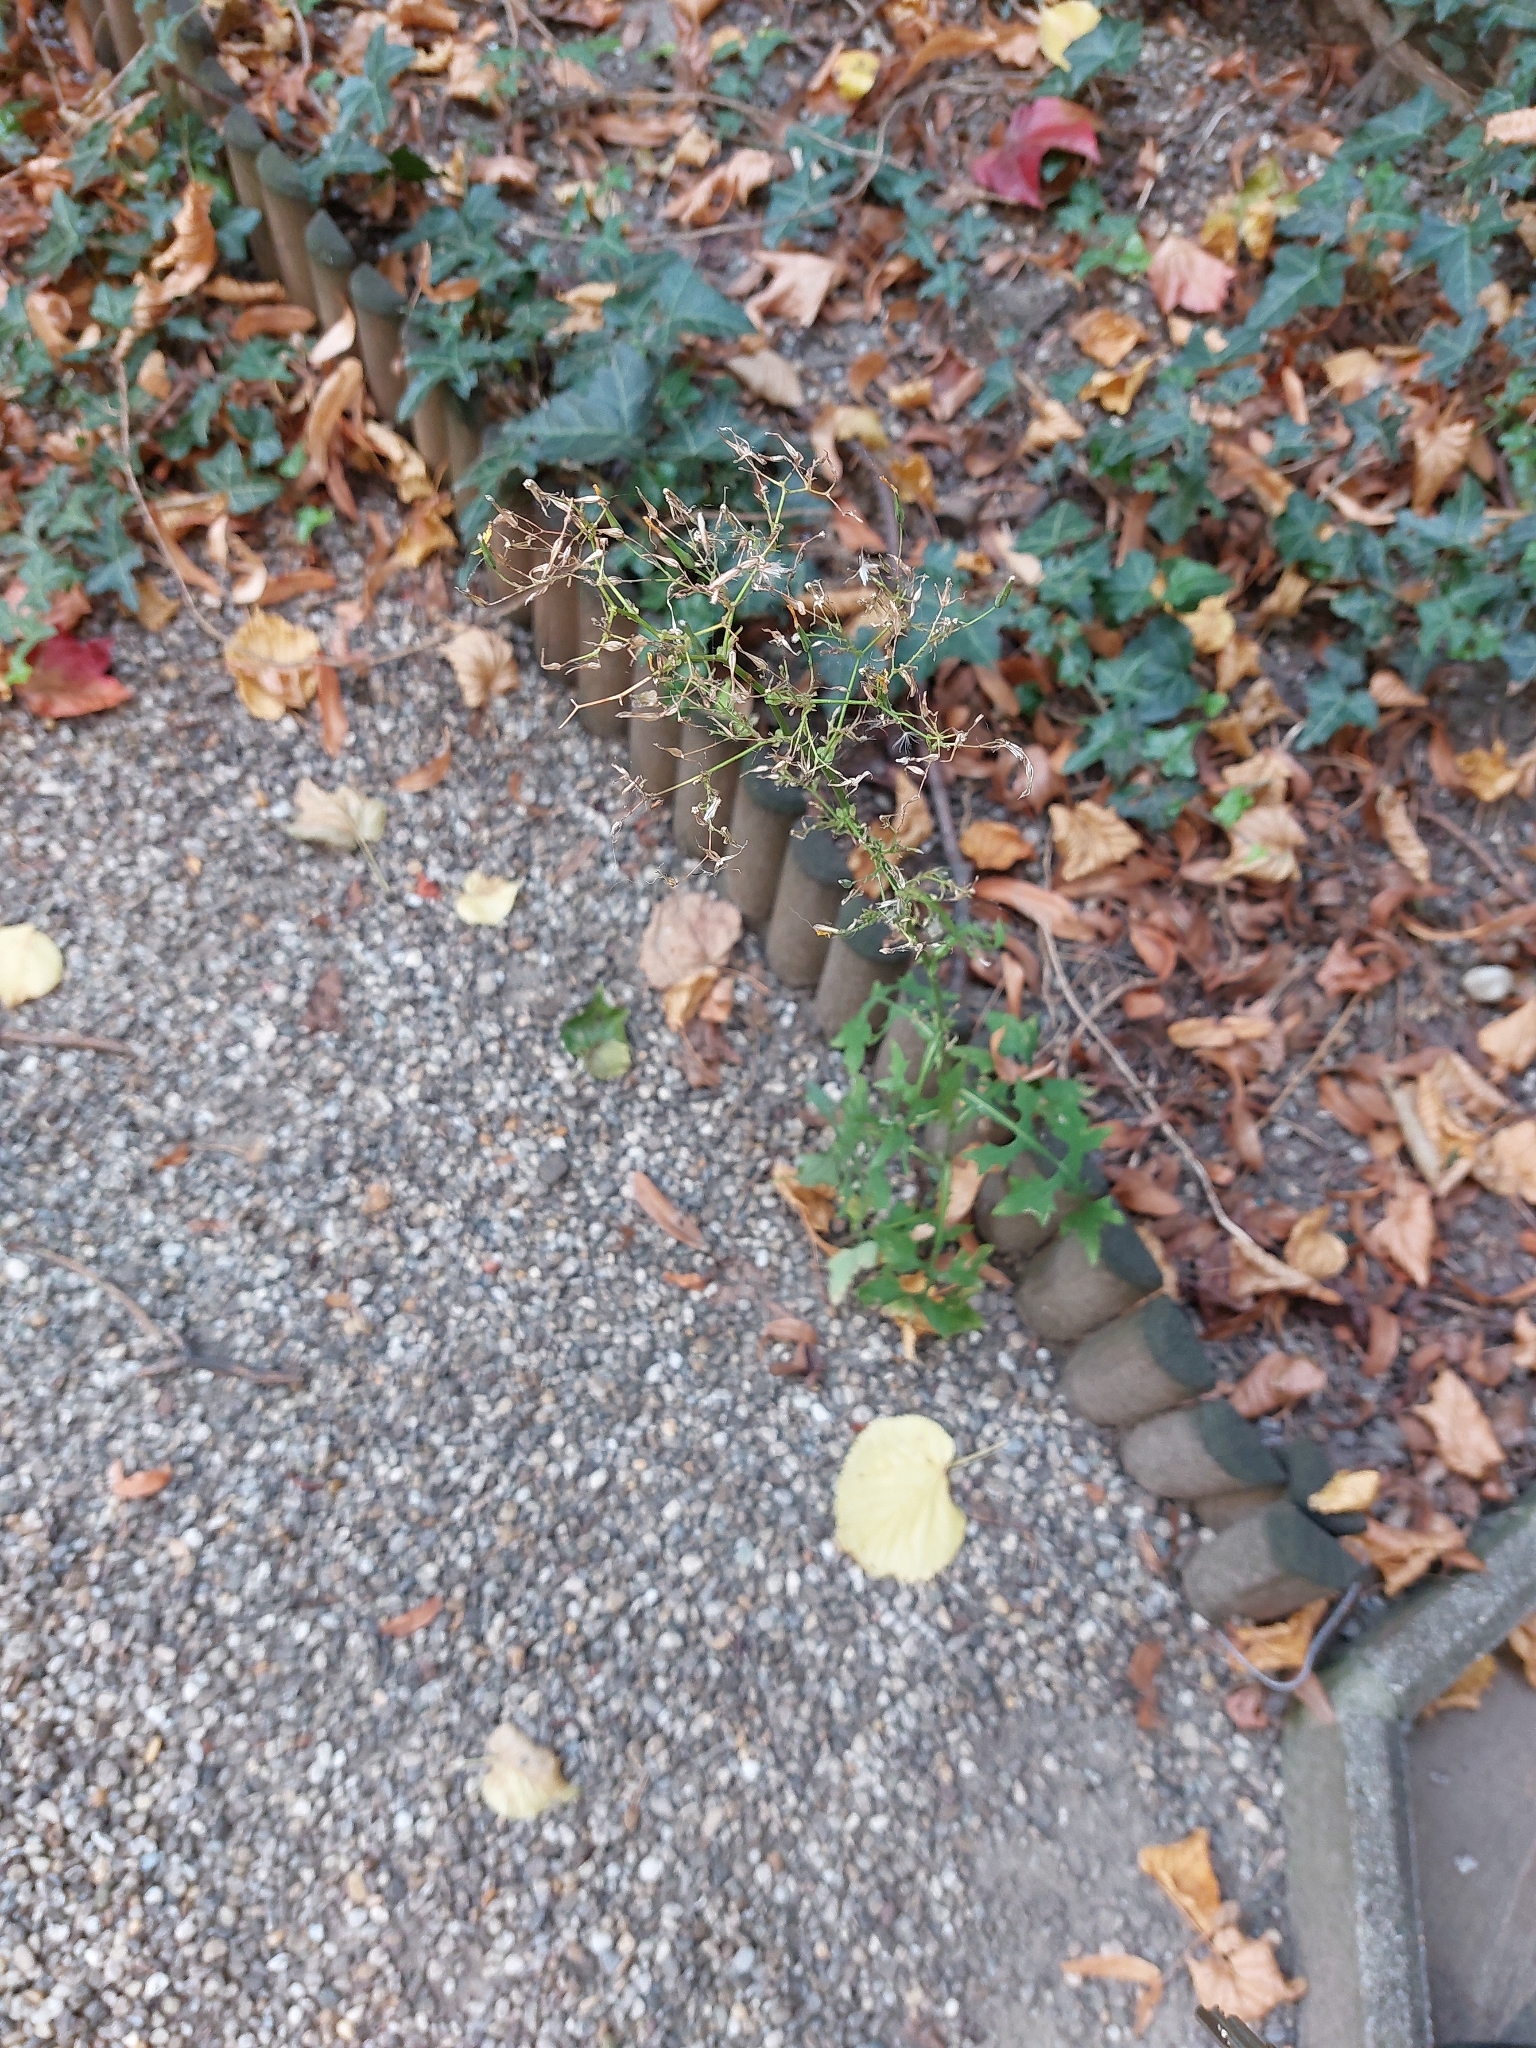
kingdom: Plantae
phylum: Tracheophyta
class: Magnoliopsida
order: Asterales
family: Asteraceae
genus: Mycelis
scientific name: Mycelis muralis
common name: Wall lettuce
